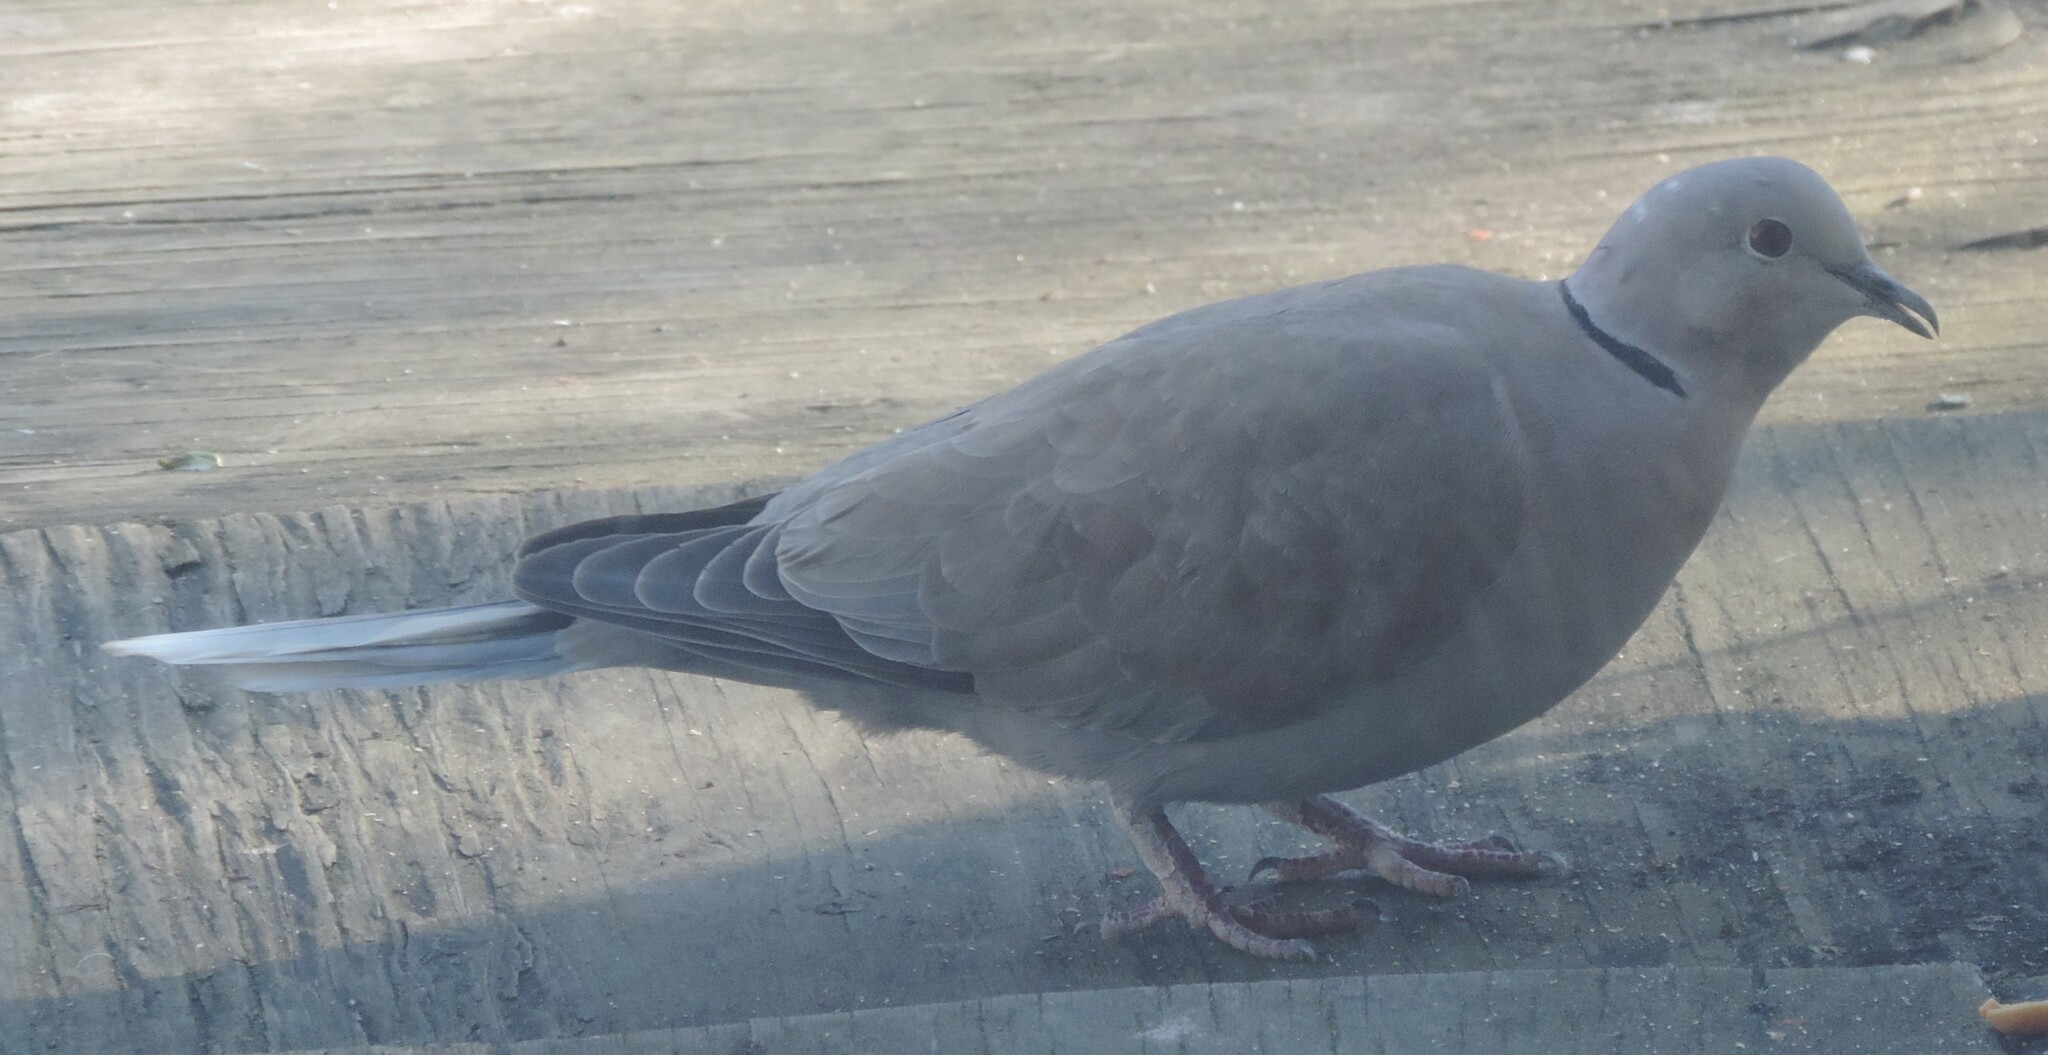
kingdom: Animalia
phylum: Chordata
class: Aves
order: Columbiformes
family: Columbidae
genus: Streptopelia
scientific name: Streptopelia decaocto
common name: Eurasian collared dove
